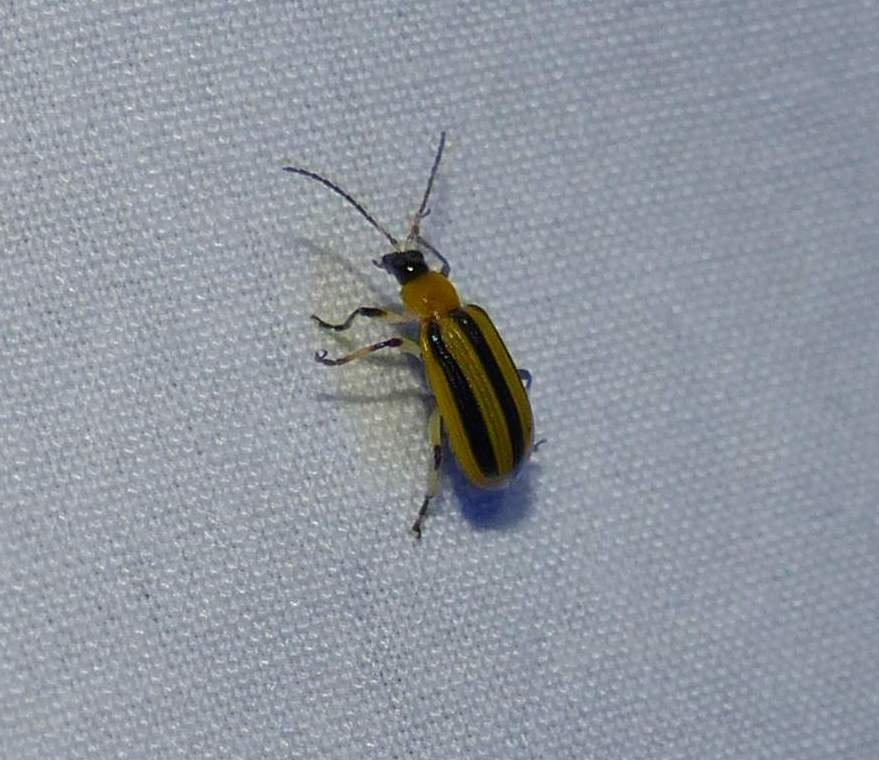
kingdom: Animalia
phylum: Arthropoda
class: Insecta
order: Coleoptera
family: Chrysomelidae
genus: Acalymma
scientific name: Acalymma vittatum
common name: Striped cucumber beetle
